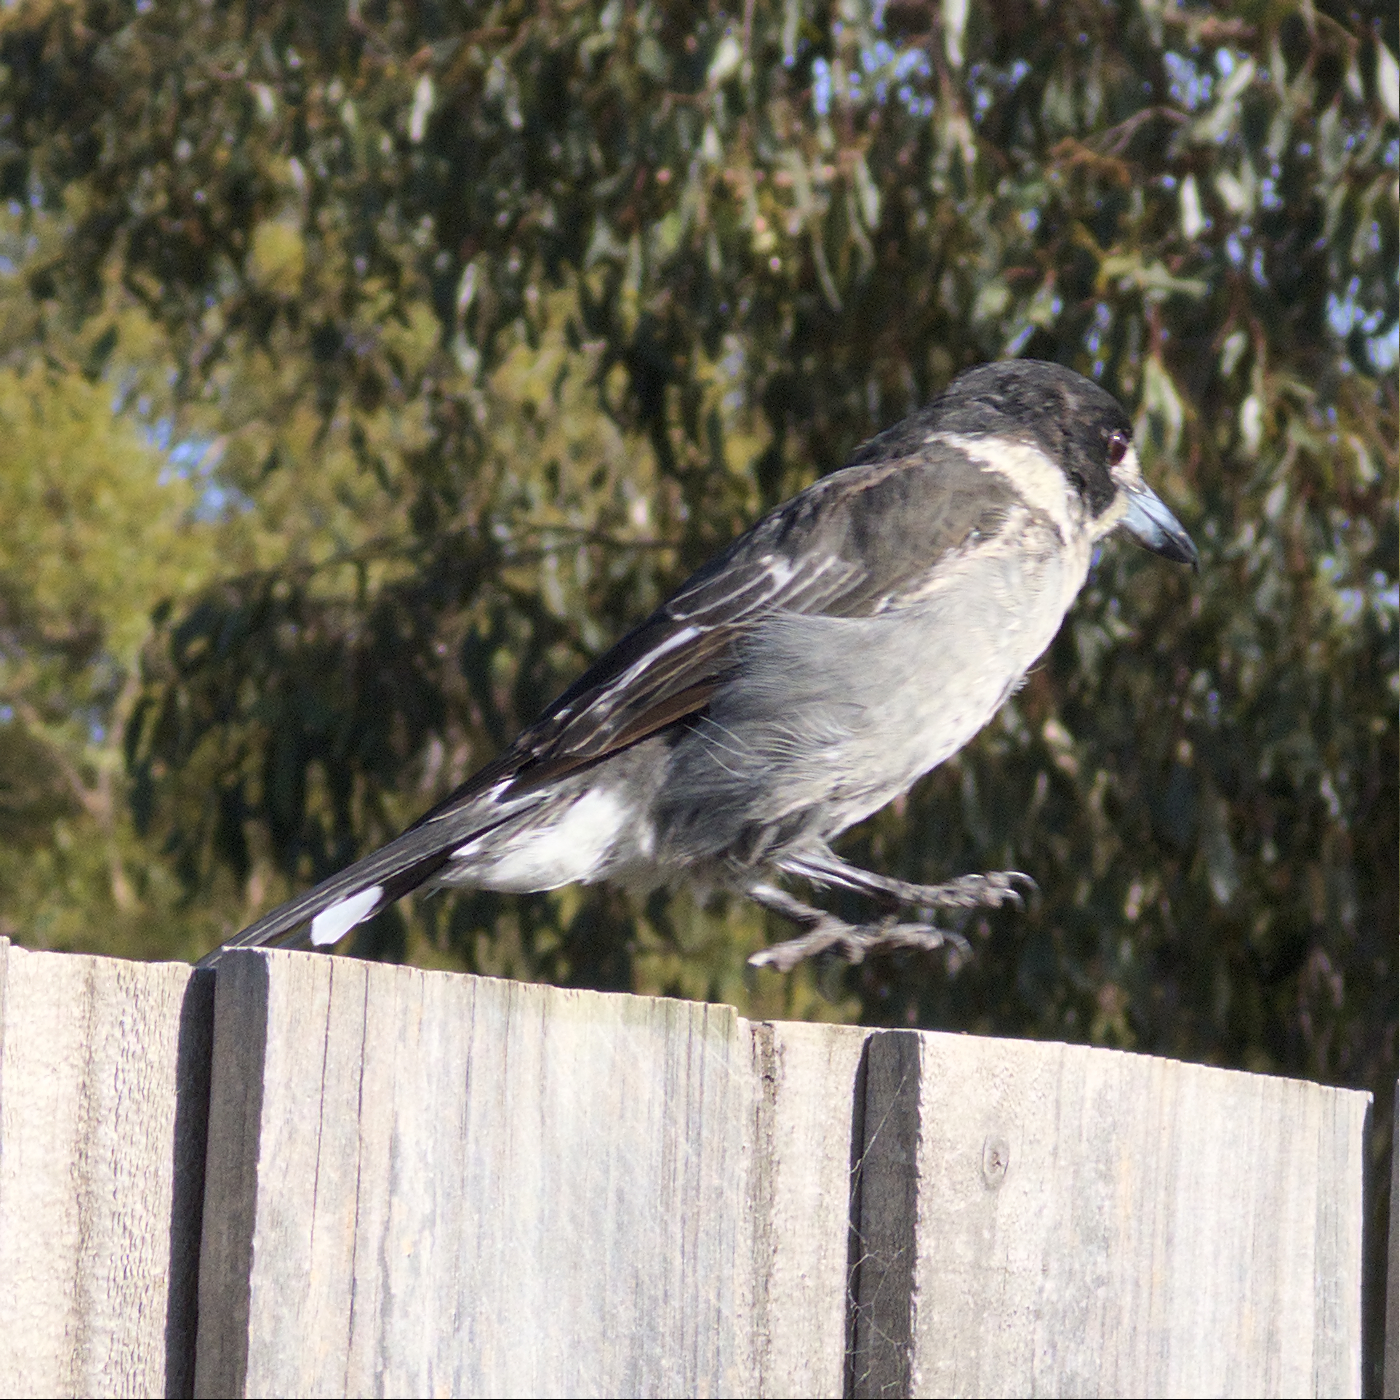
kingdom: Animalia
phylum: Chordata
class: Aves
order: Passeriformes
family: Cracticidae
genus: Cracticus
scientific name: Cracticus torquatus
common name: Grey butcherbird
